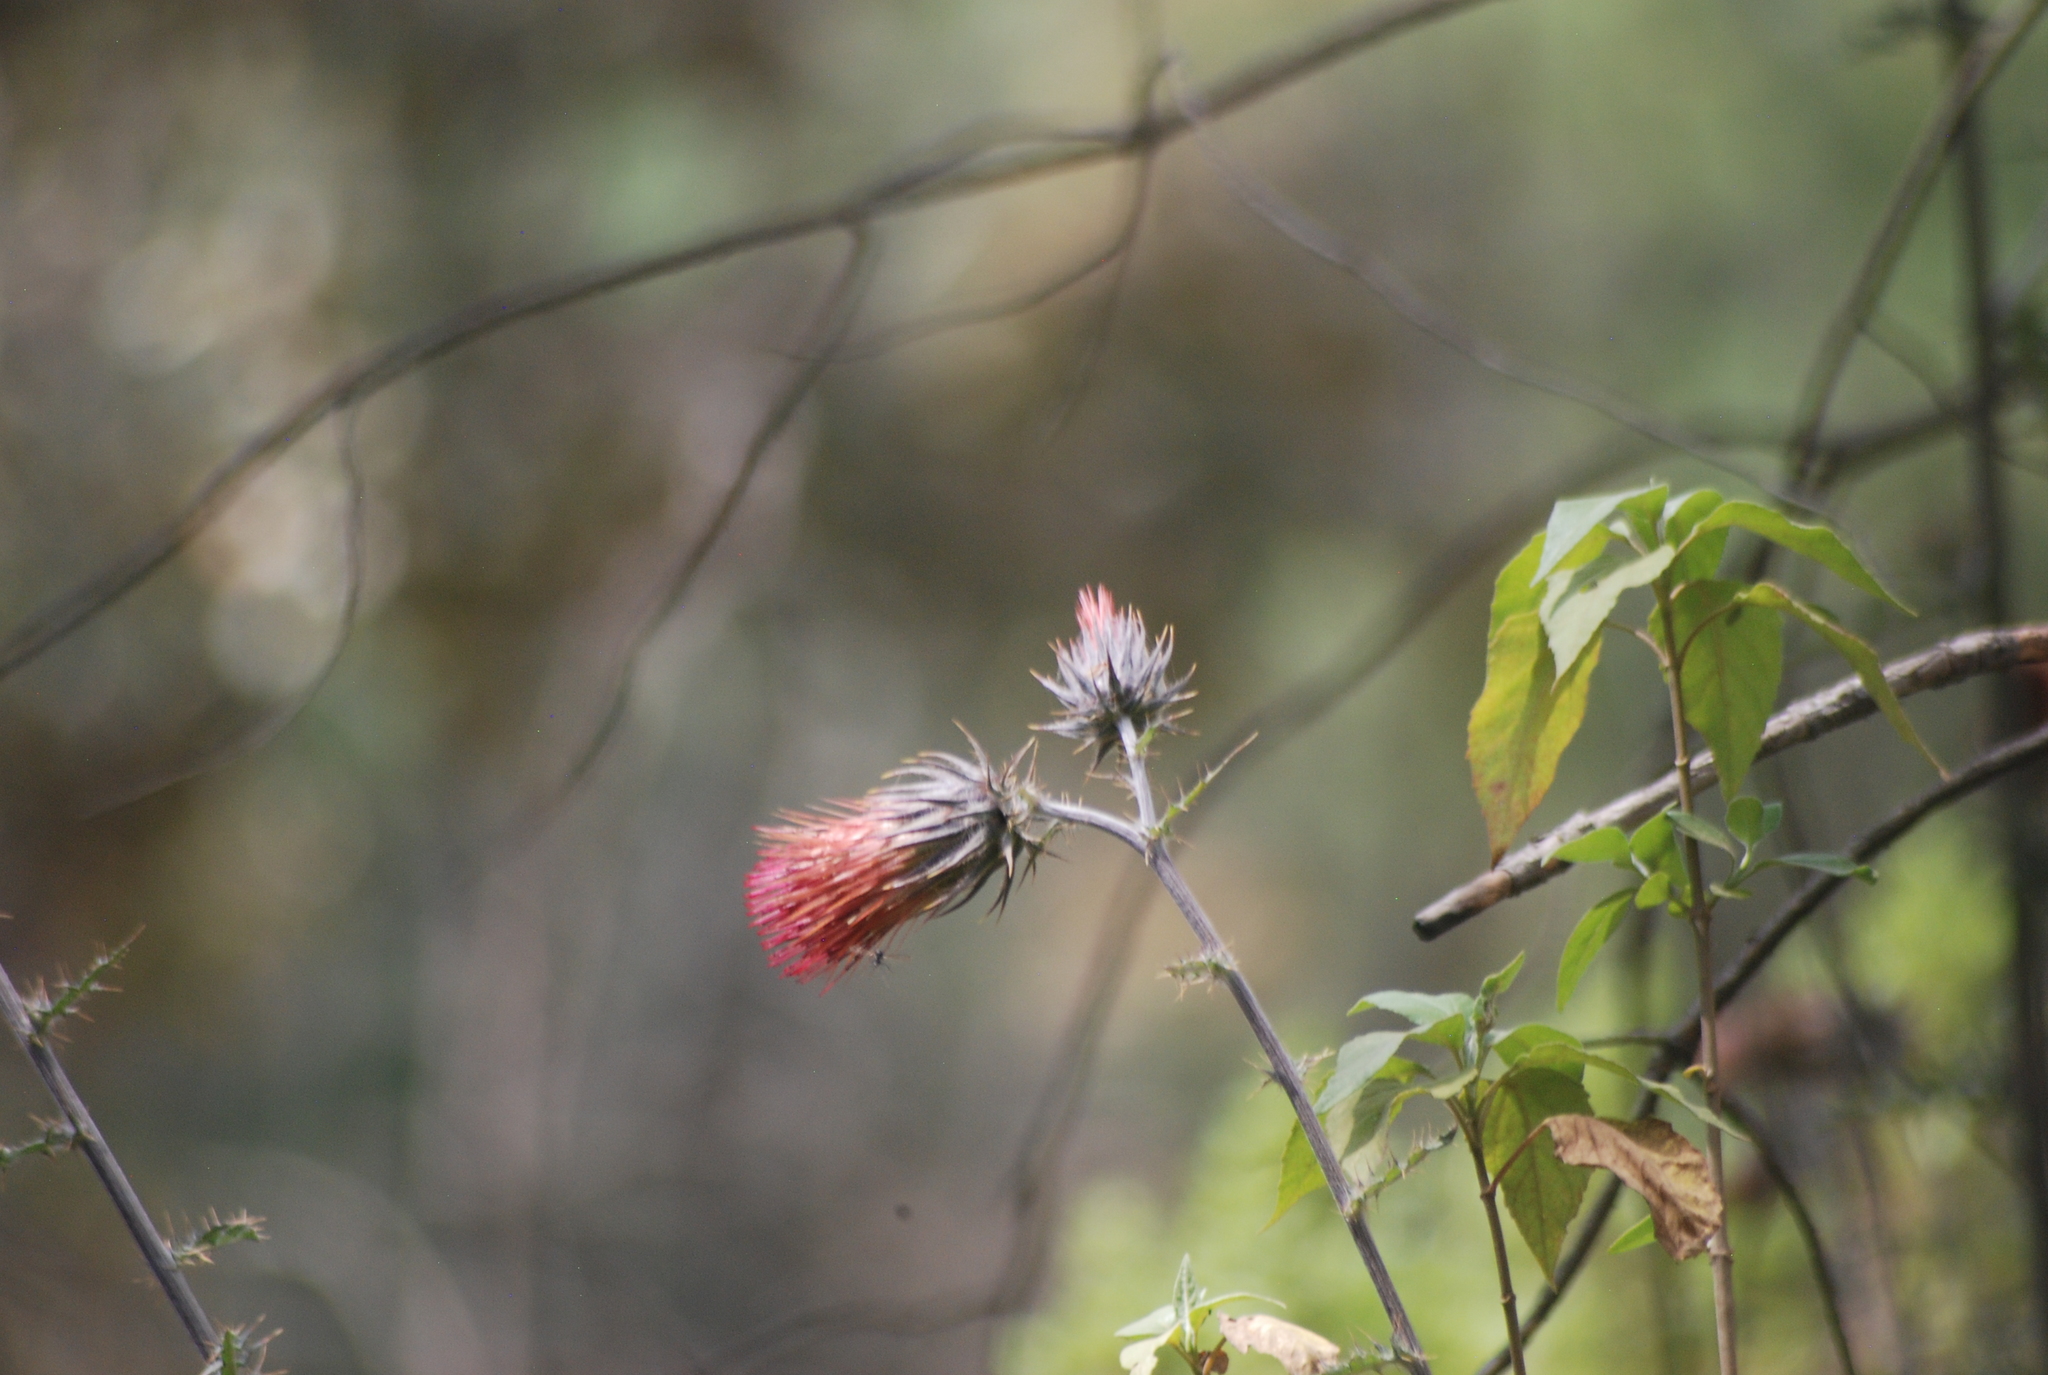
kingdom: Plantae
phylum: Tracheophyta
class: Magnoliopsida
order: Asterales
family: Asteraceae
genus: Cirsium
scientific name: Cirsium ehrenbergii
